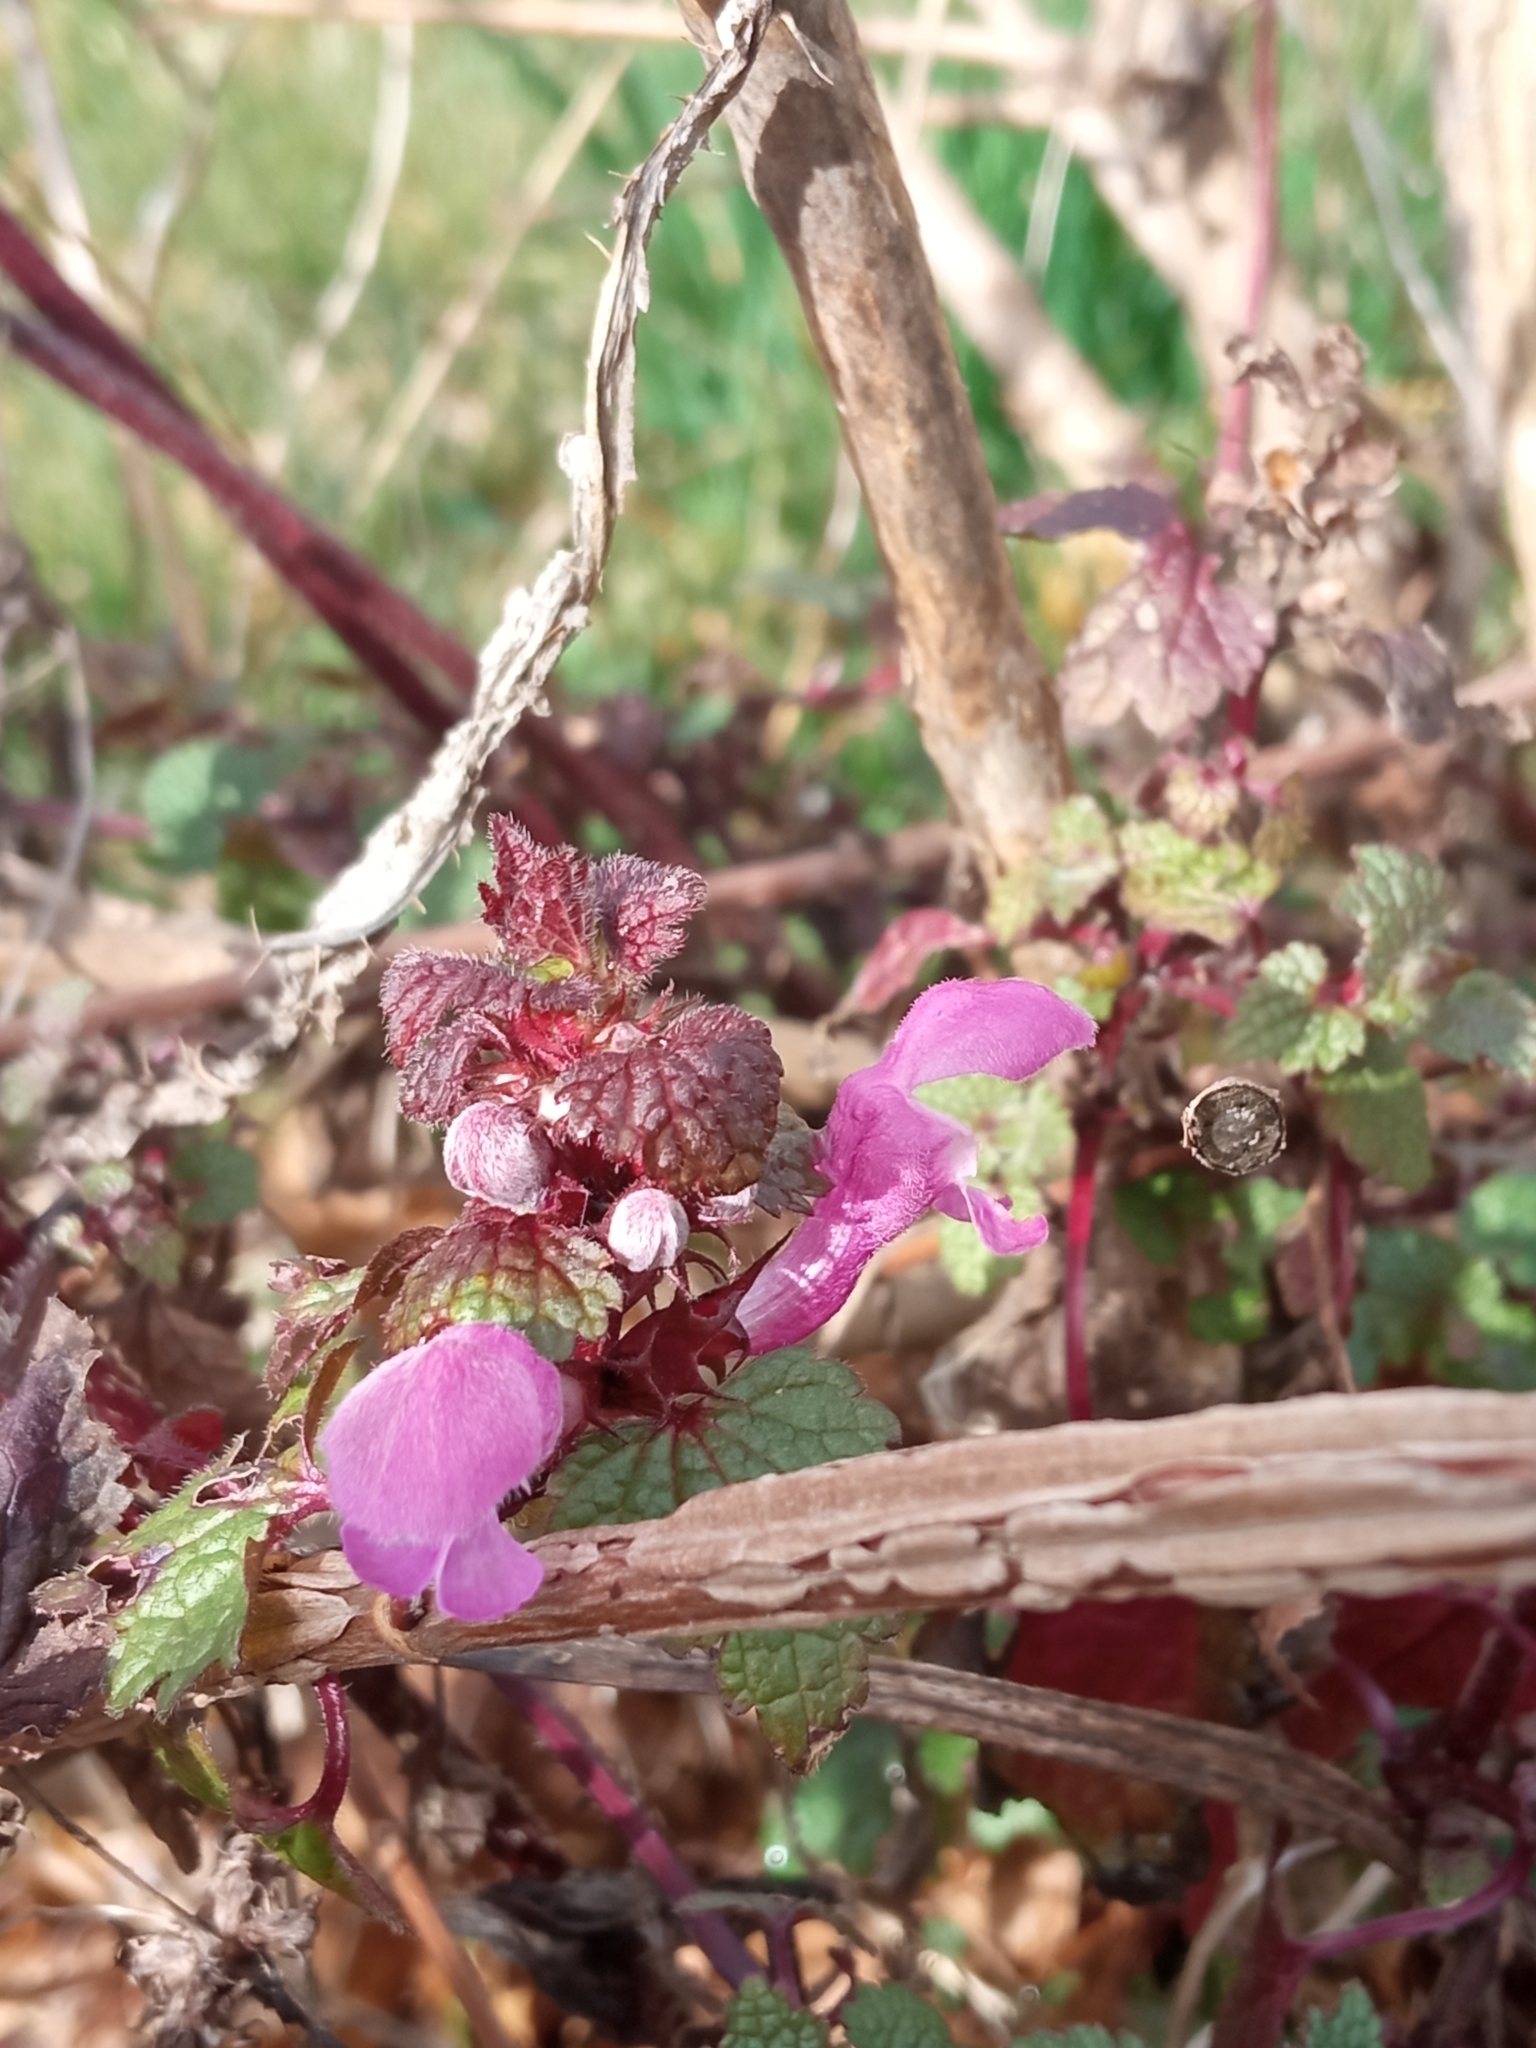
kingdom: Plantae
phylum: Tracheophyta
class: Magnoliopsida
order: Lamiales
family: Lamiaceae
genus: Lamium
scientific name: Lamium maculatum
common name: Spotted dead-nettle
